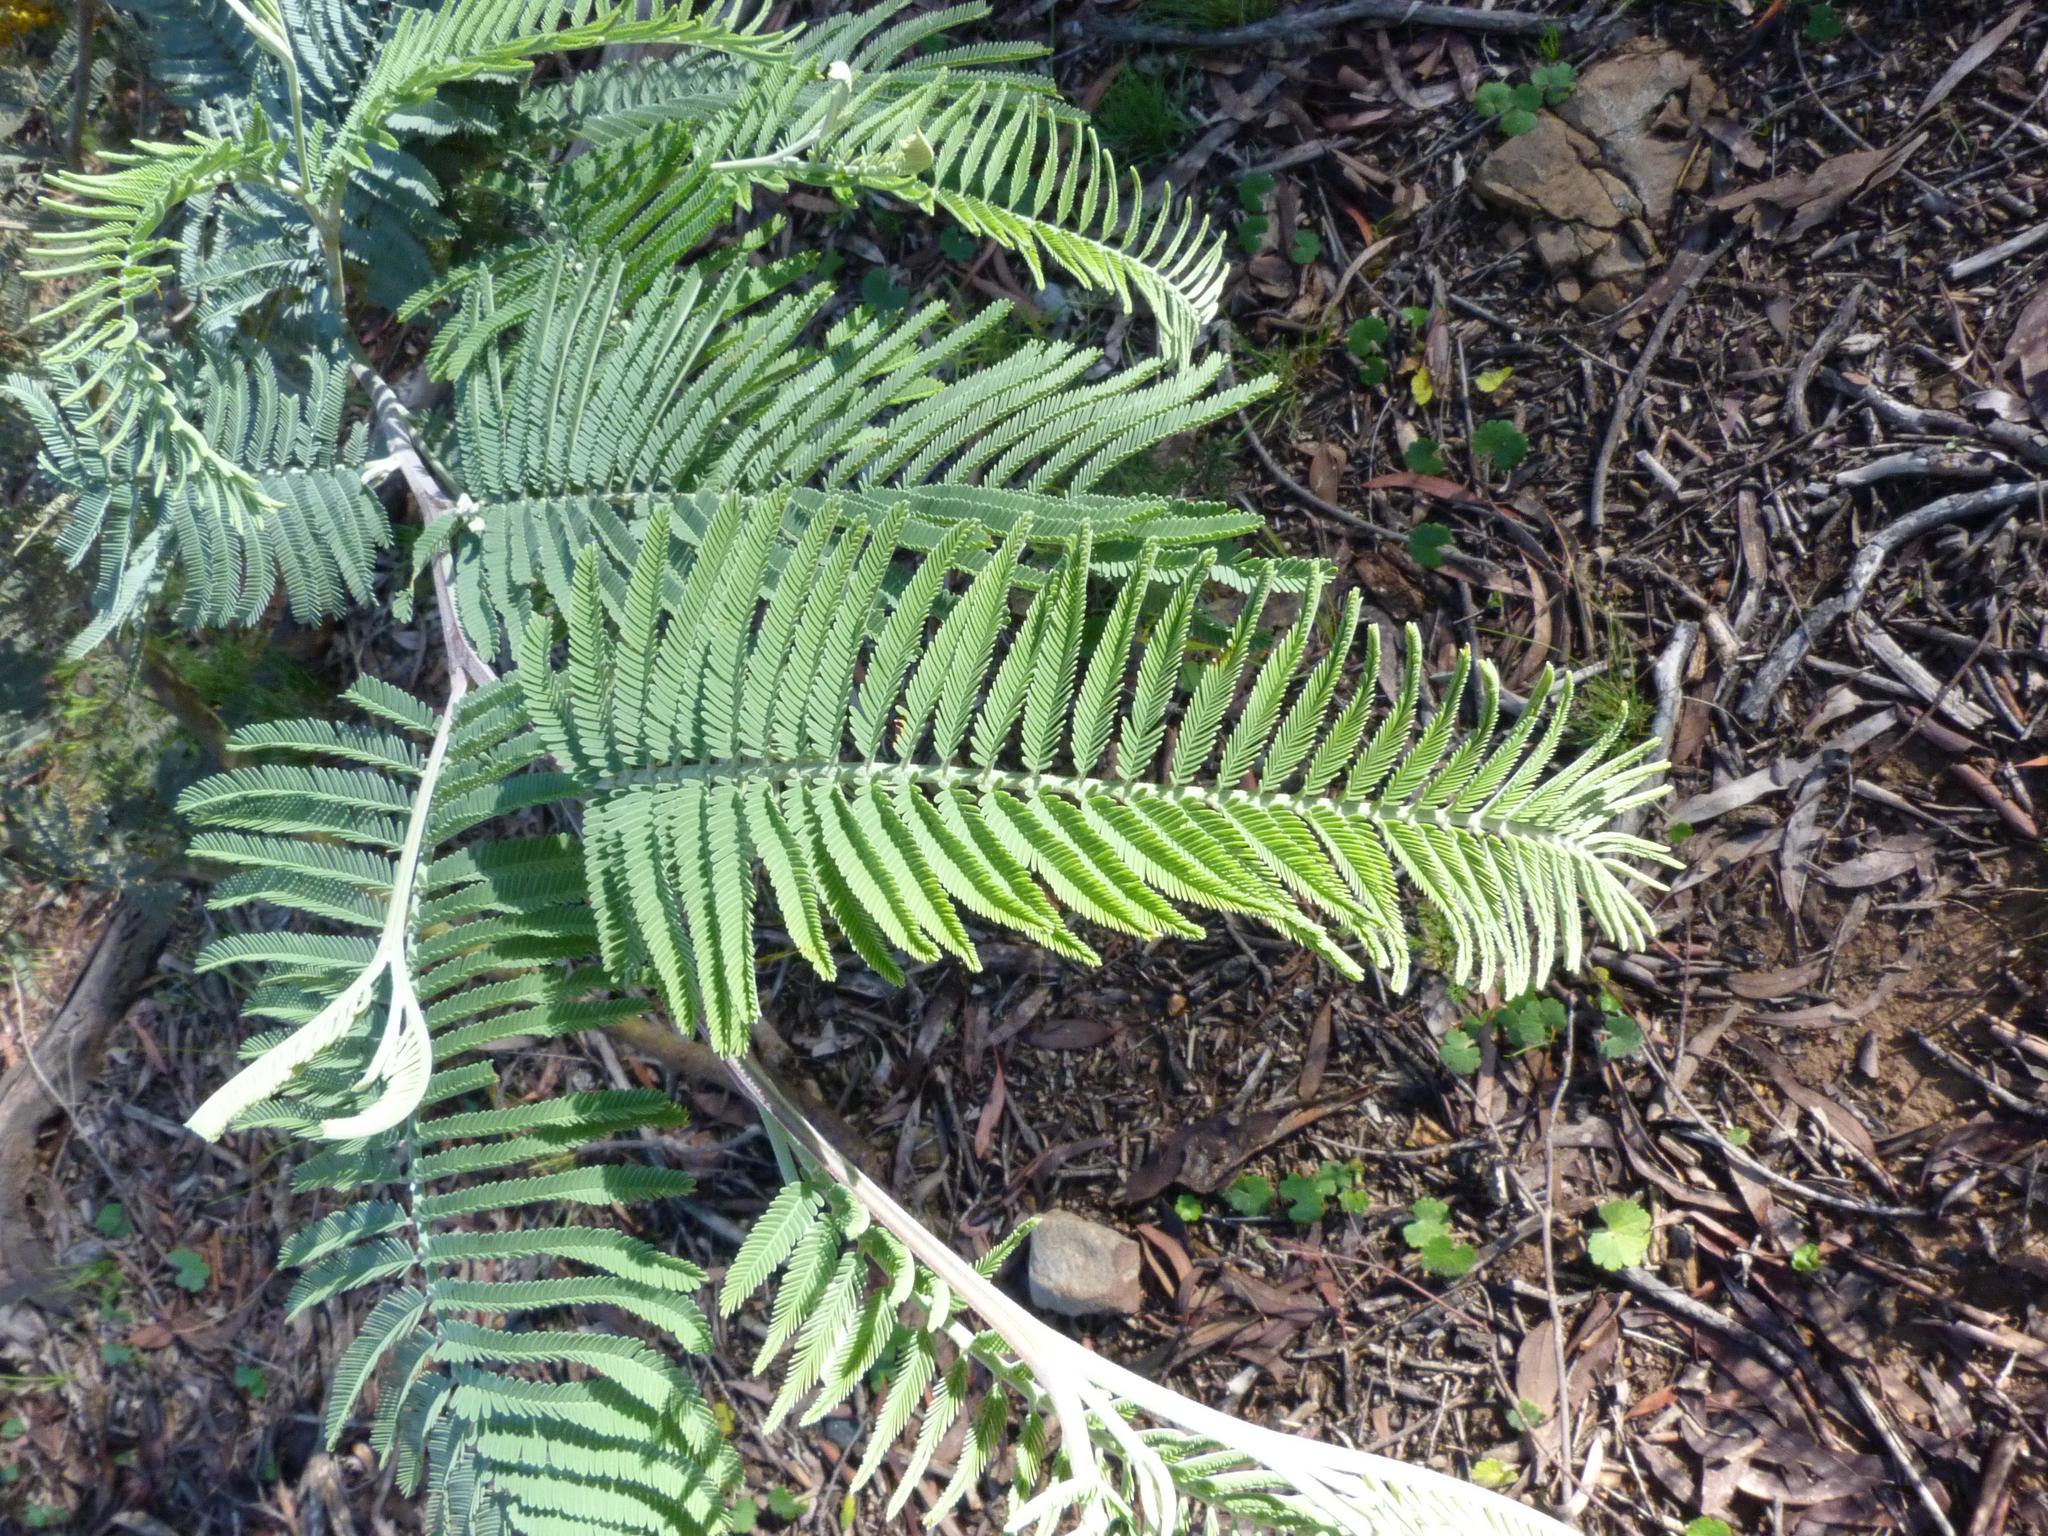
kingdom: Plantae
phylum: Tracheophyta
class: Magnoliopsida
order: Fabales
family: Fabaceae
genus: Acacia
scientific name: Acacia dealbata
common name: Silver wattle
